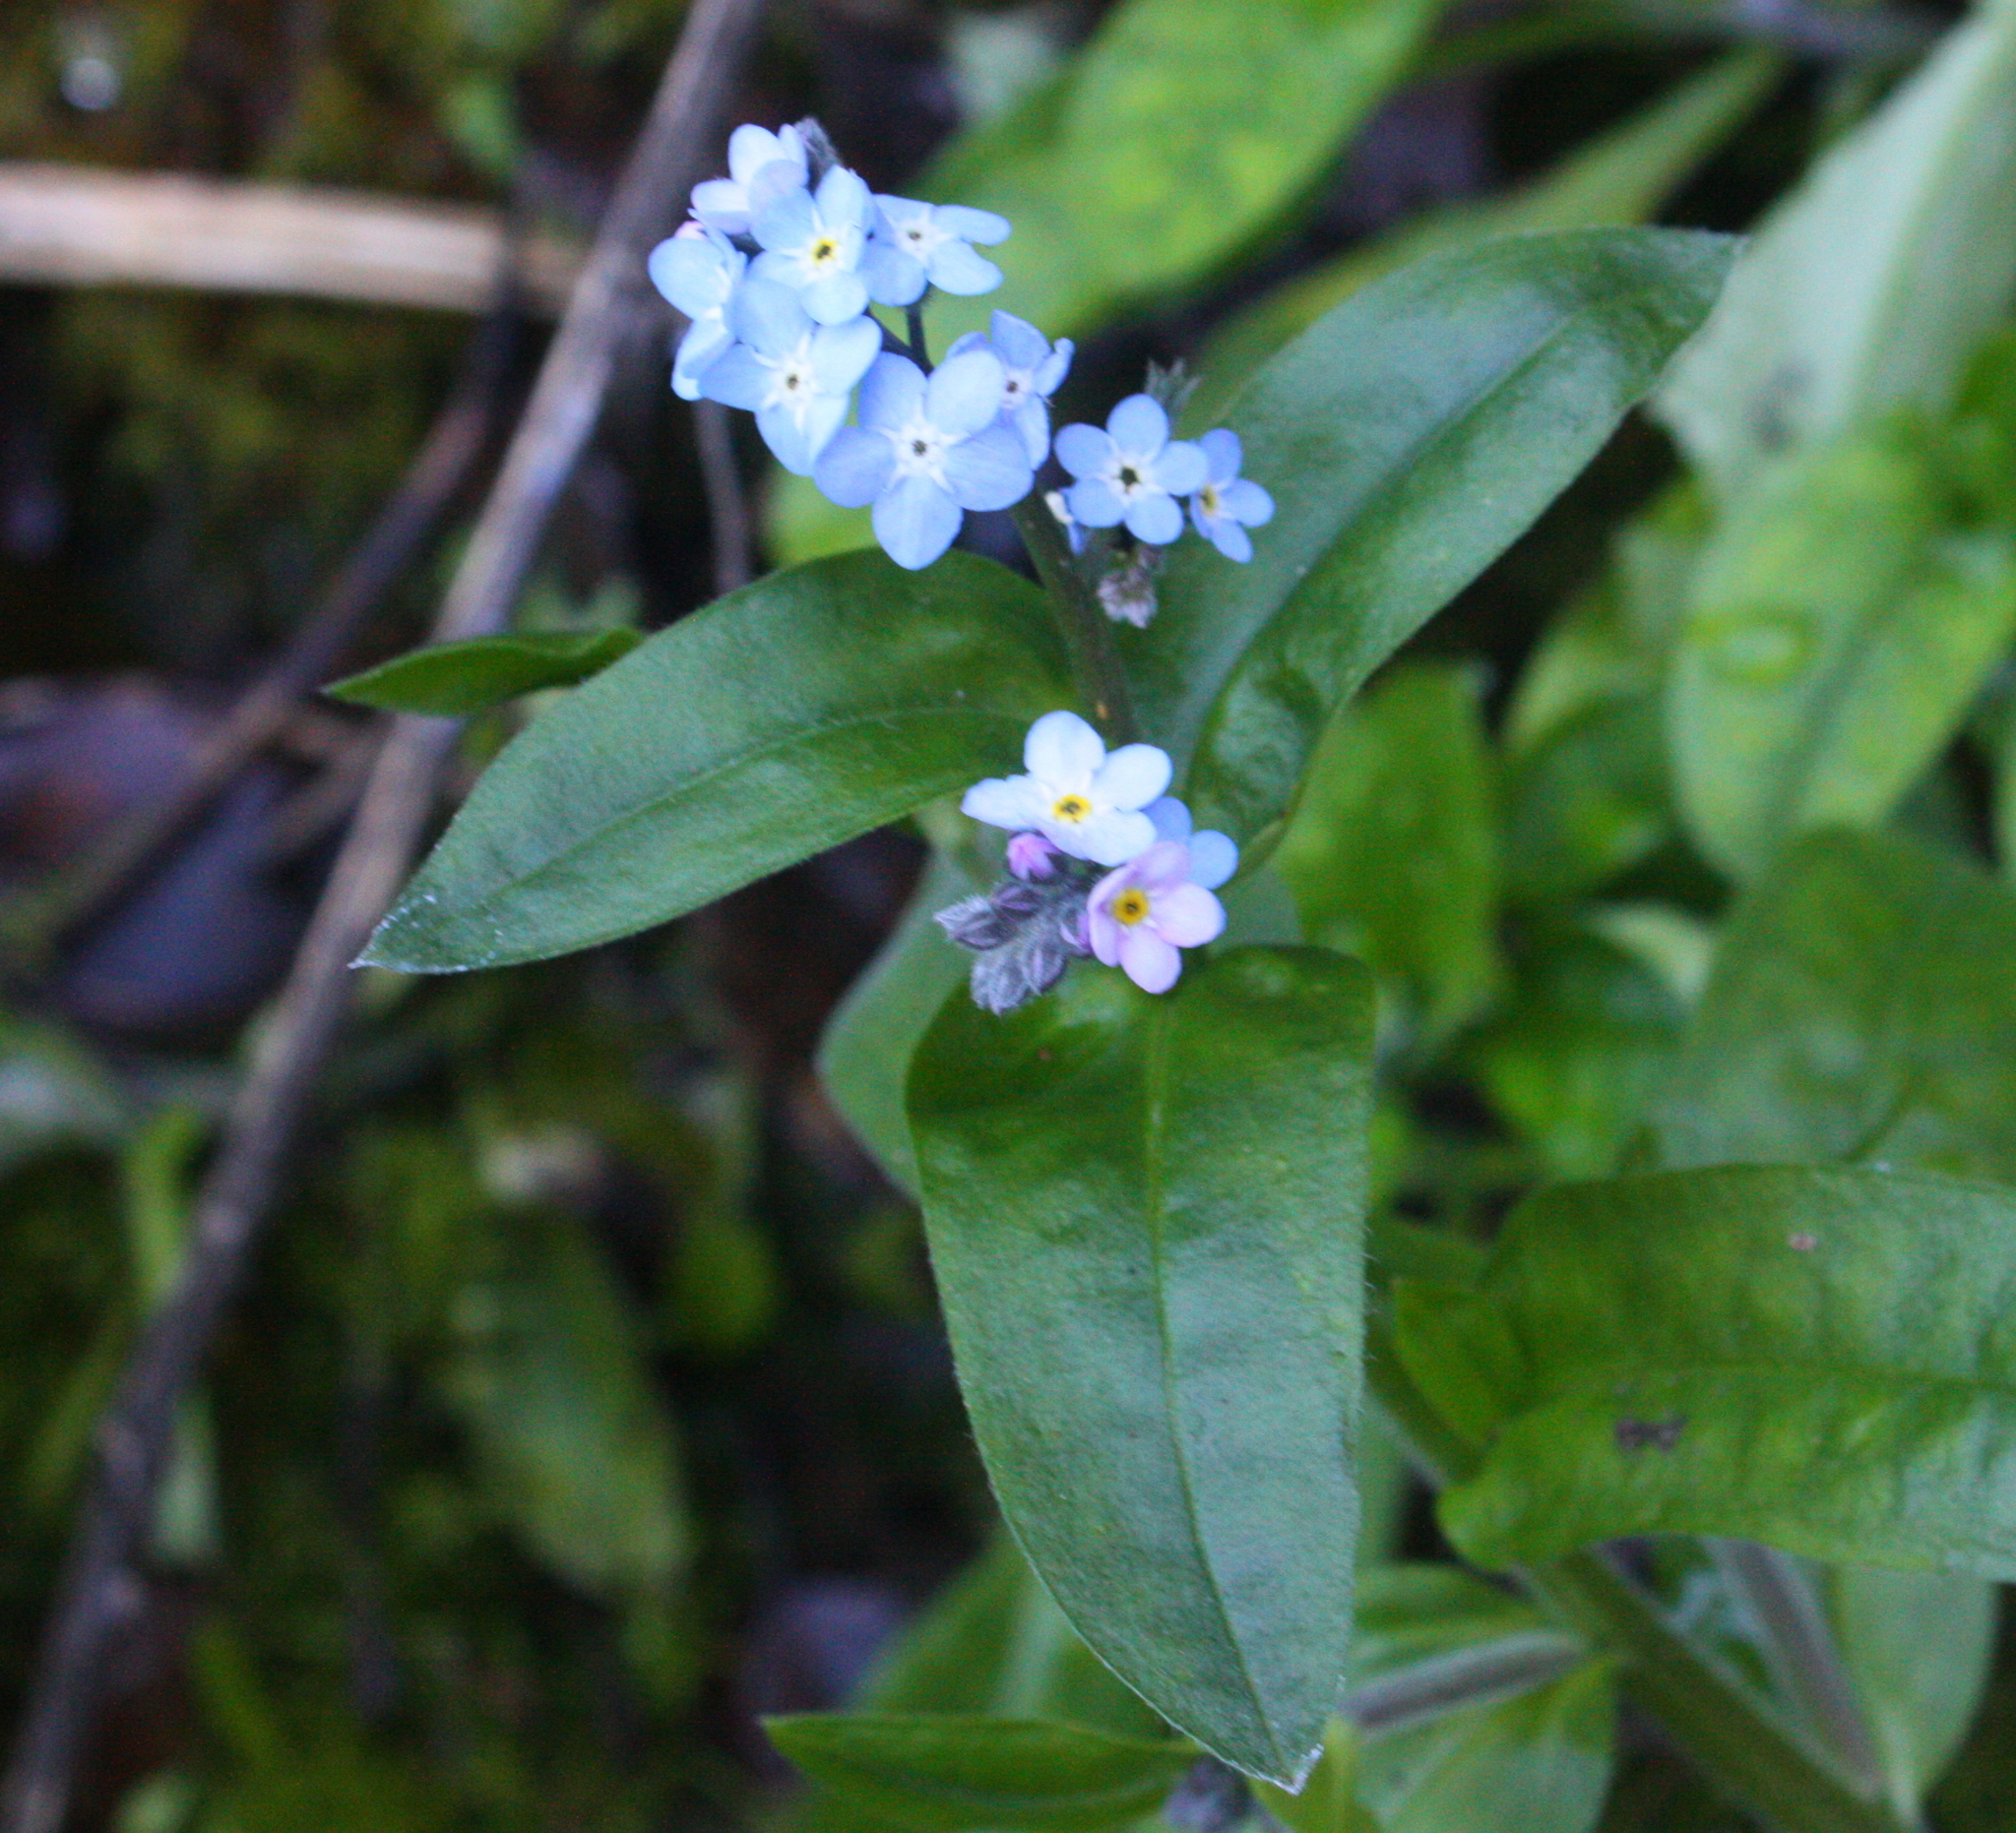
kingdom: Plantae
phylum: Tracheophyta
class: Magnoliopsida
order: Boraginales
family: Boraginaceae
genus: Myosotis
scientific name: Myosotis latifolia
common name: Broadleaf forget-me-not
